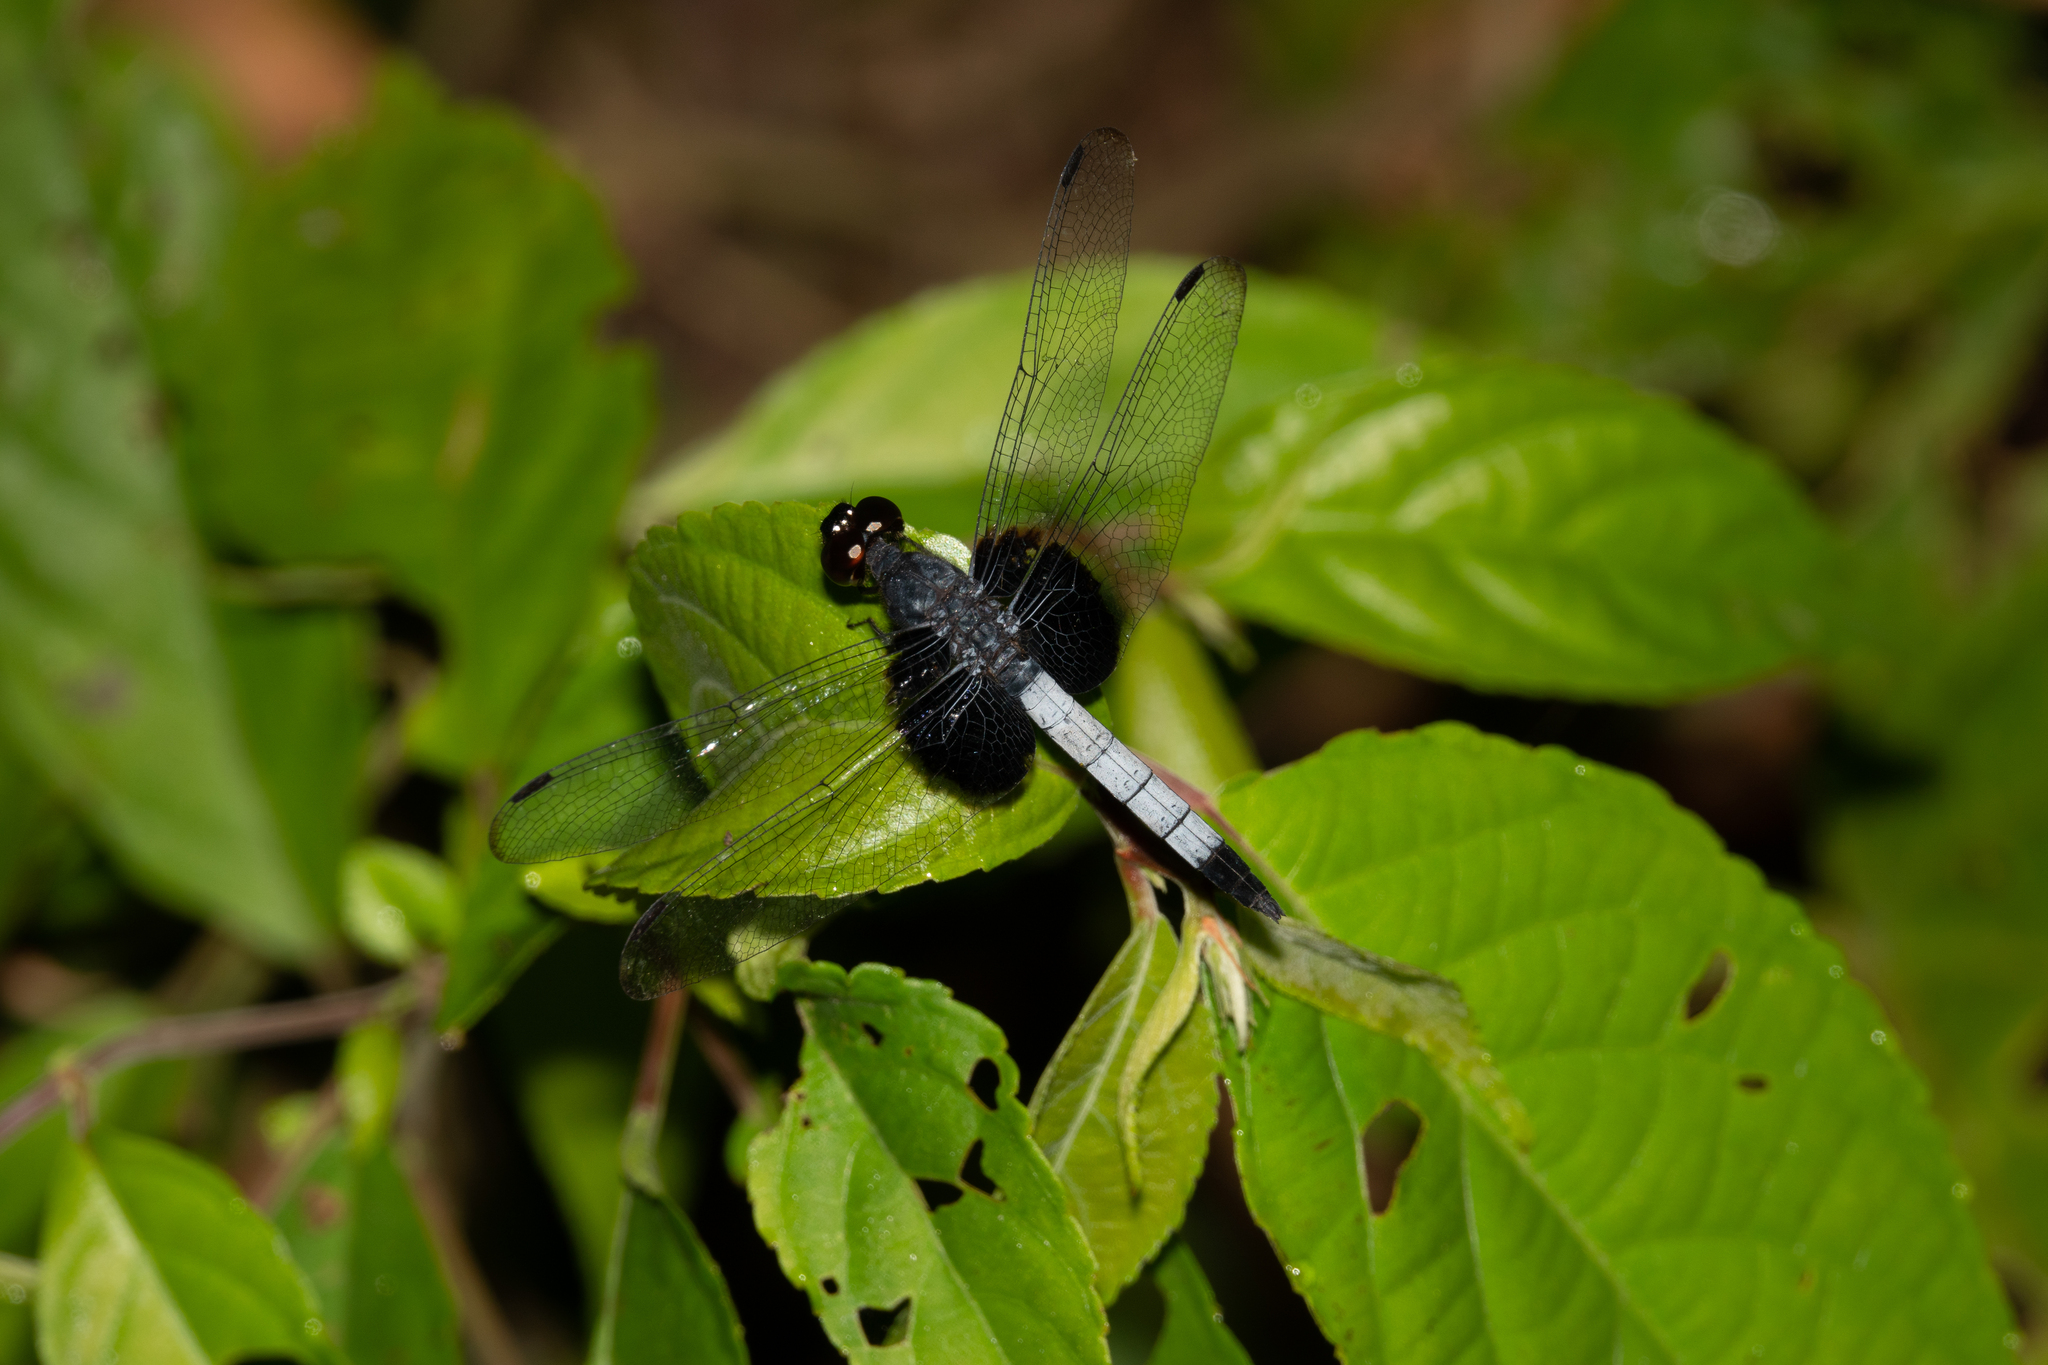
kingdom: Animalia
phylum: Arthropoda
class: Insecta
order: Odonata
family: Libellulidae
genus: Erythrodiplax
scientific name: Erythrodiplax unimaculata
